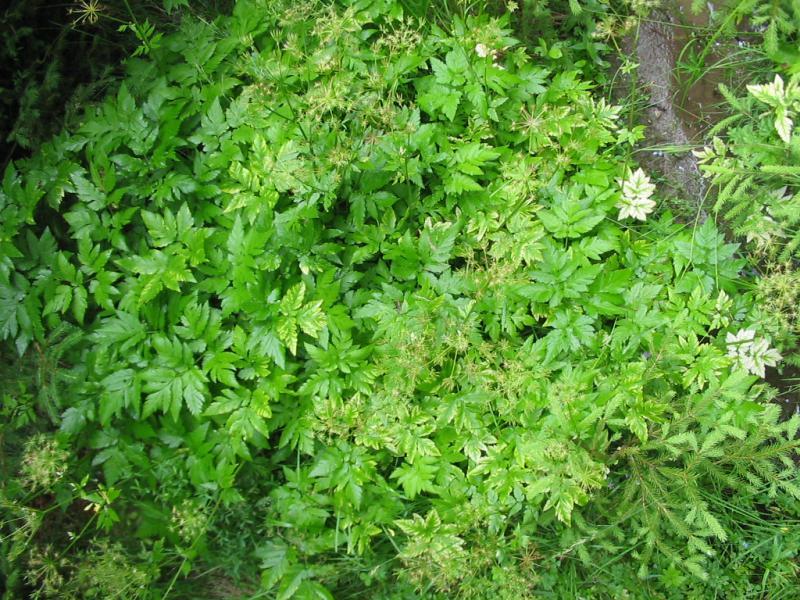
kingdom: Plantae
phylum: Tracheophyta
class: Magnoliopsida
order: Apiales
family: Apiaceae
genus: Chaerophyllum
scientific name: Chaerophyllum hirsutum
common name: Hairy chervil
